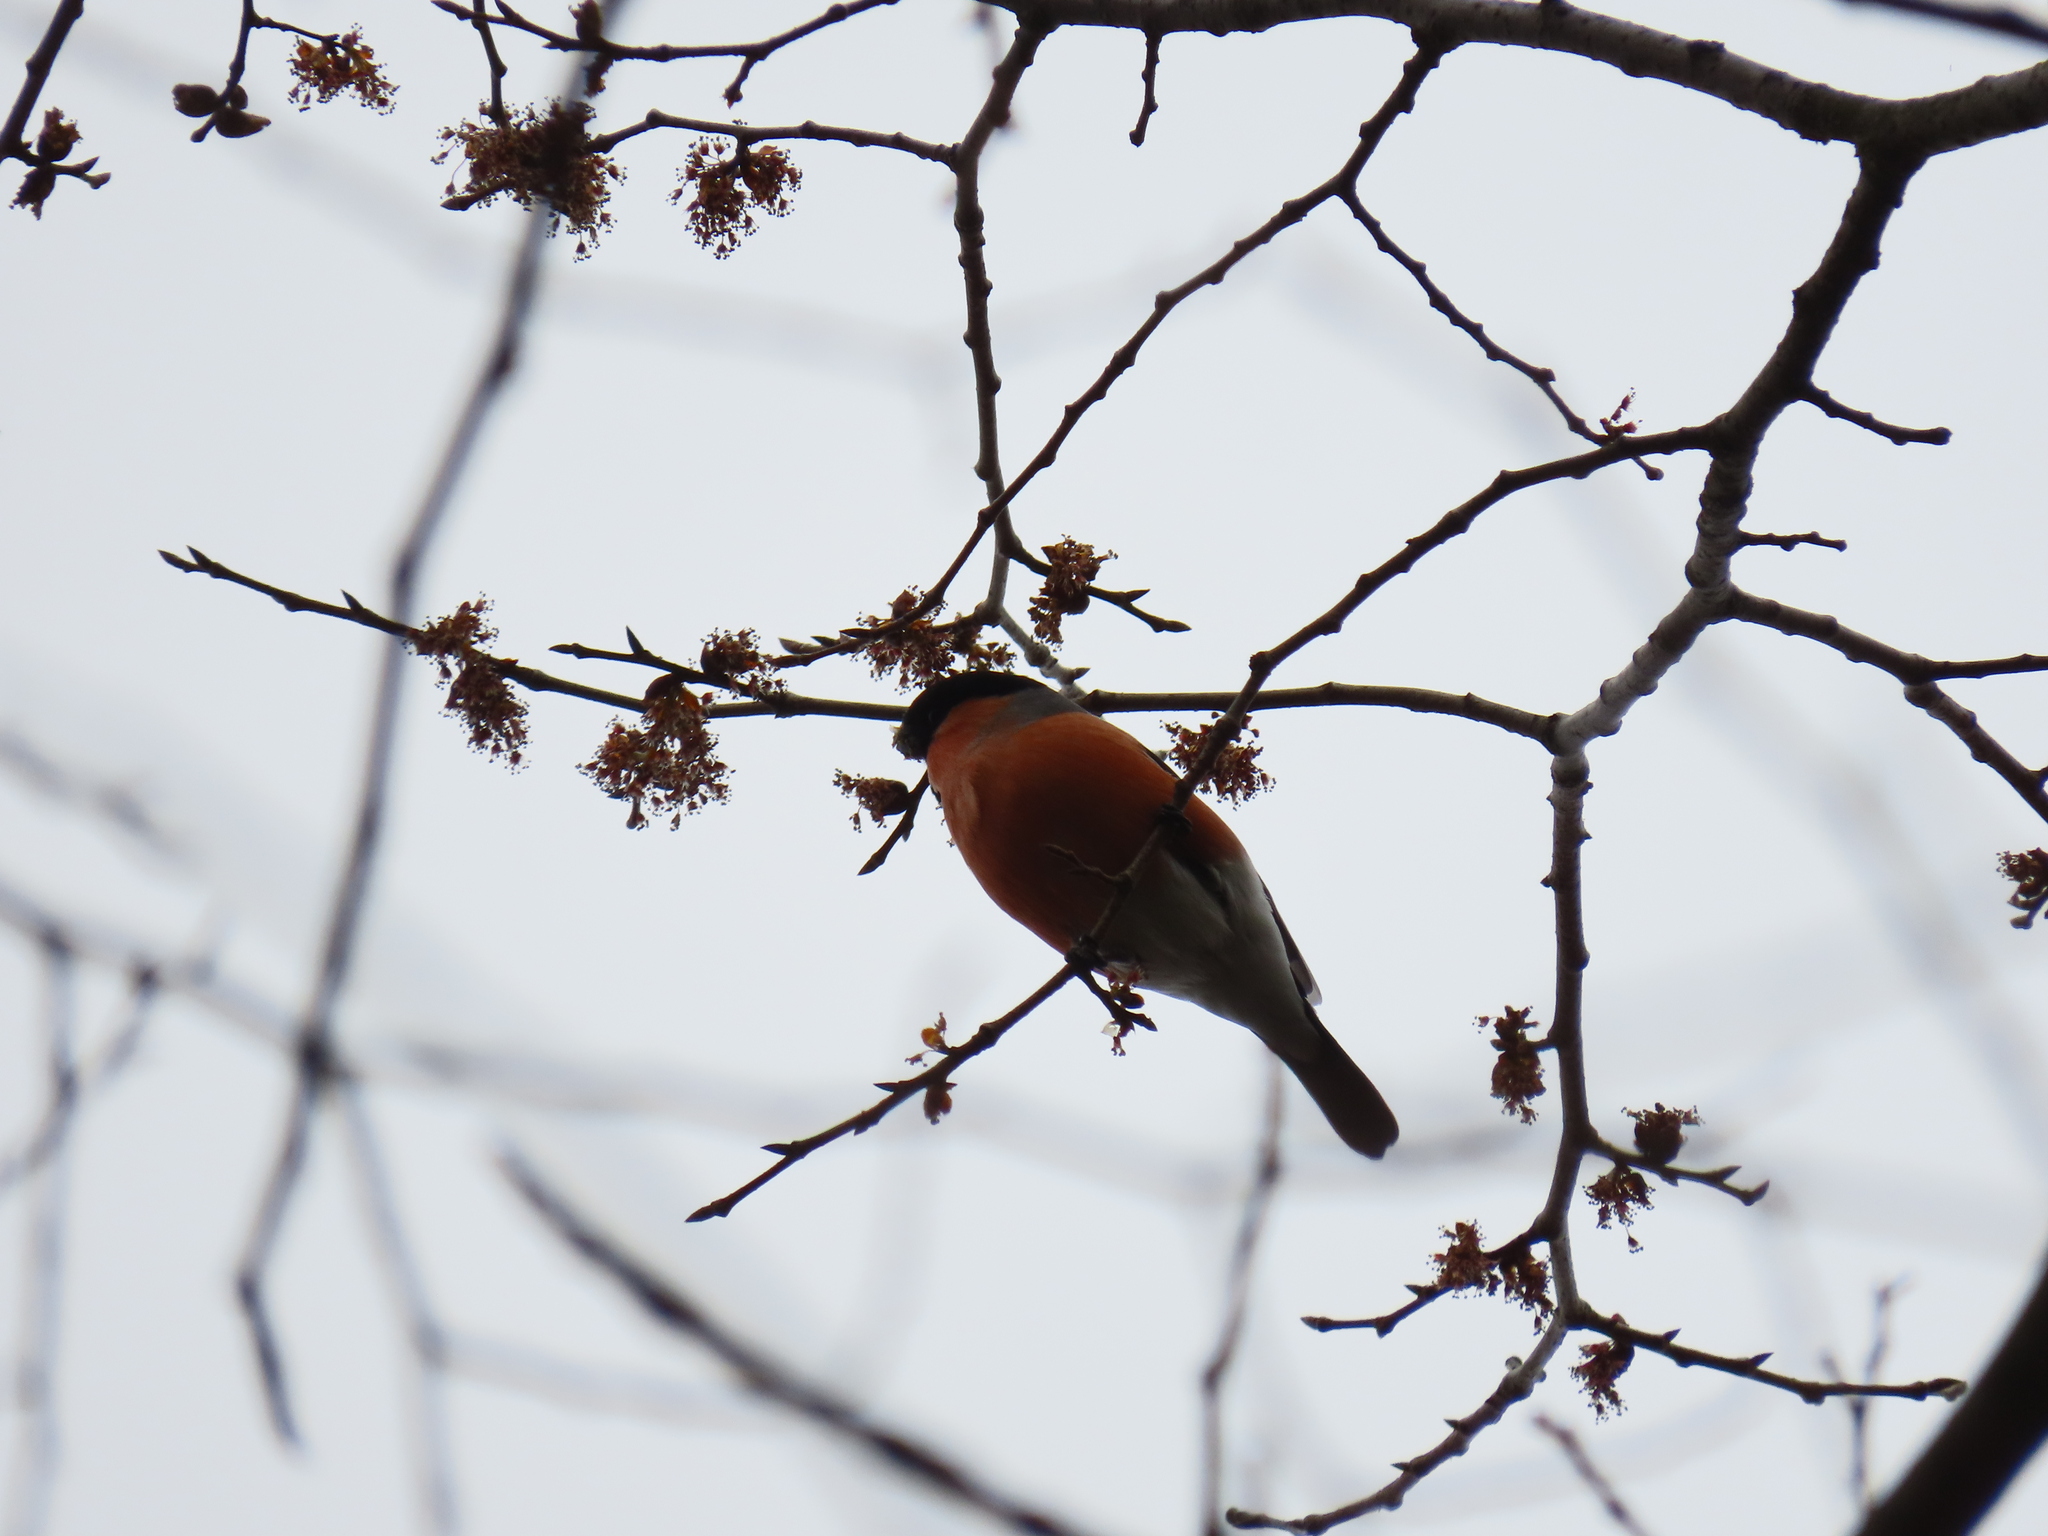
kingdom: Animalia
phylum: Chordata
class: Aves
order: Passeriformes
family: Fringillidae
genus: Pyrrhula
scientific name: Pyrrhula pyrrhula
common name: Eurasian bullfinch
